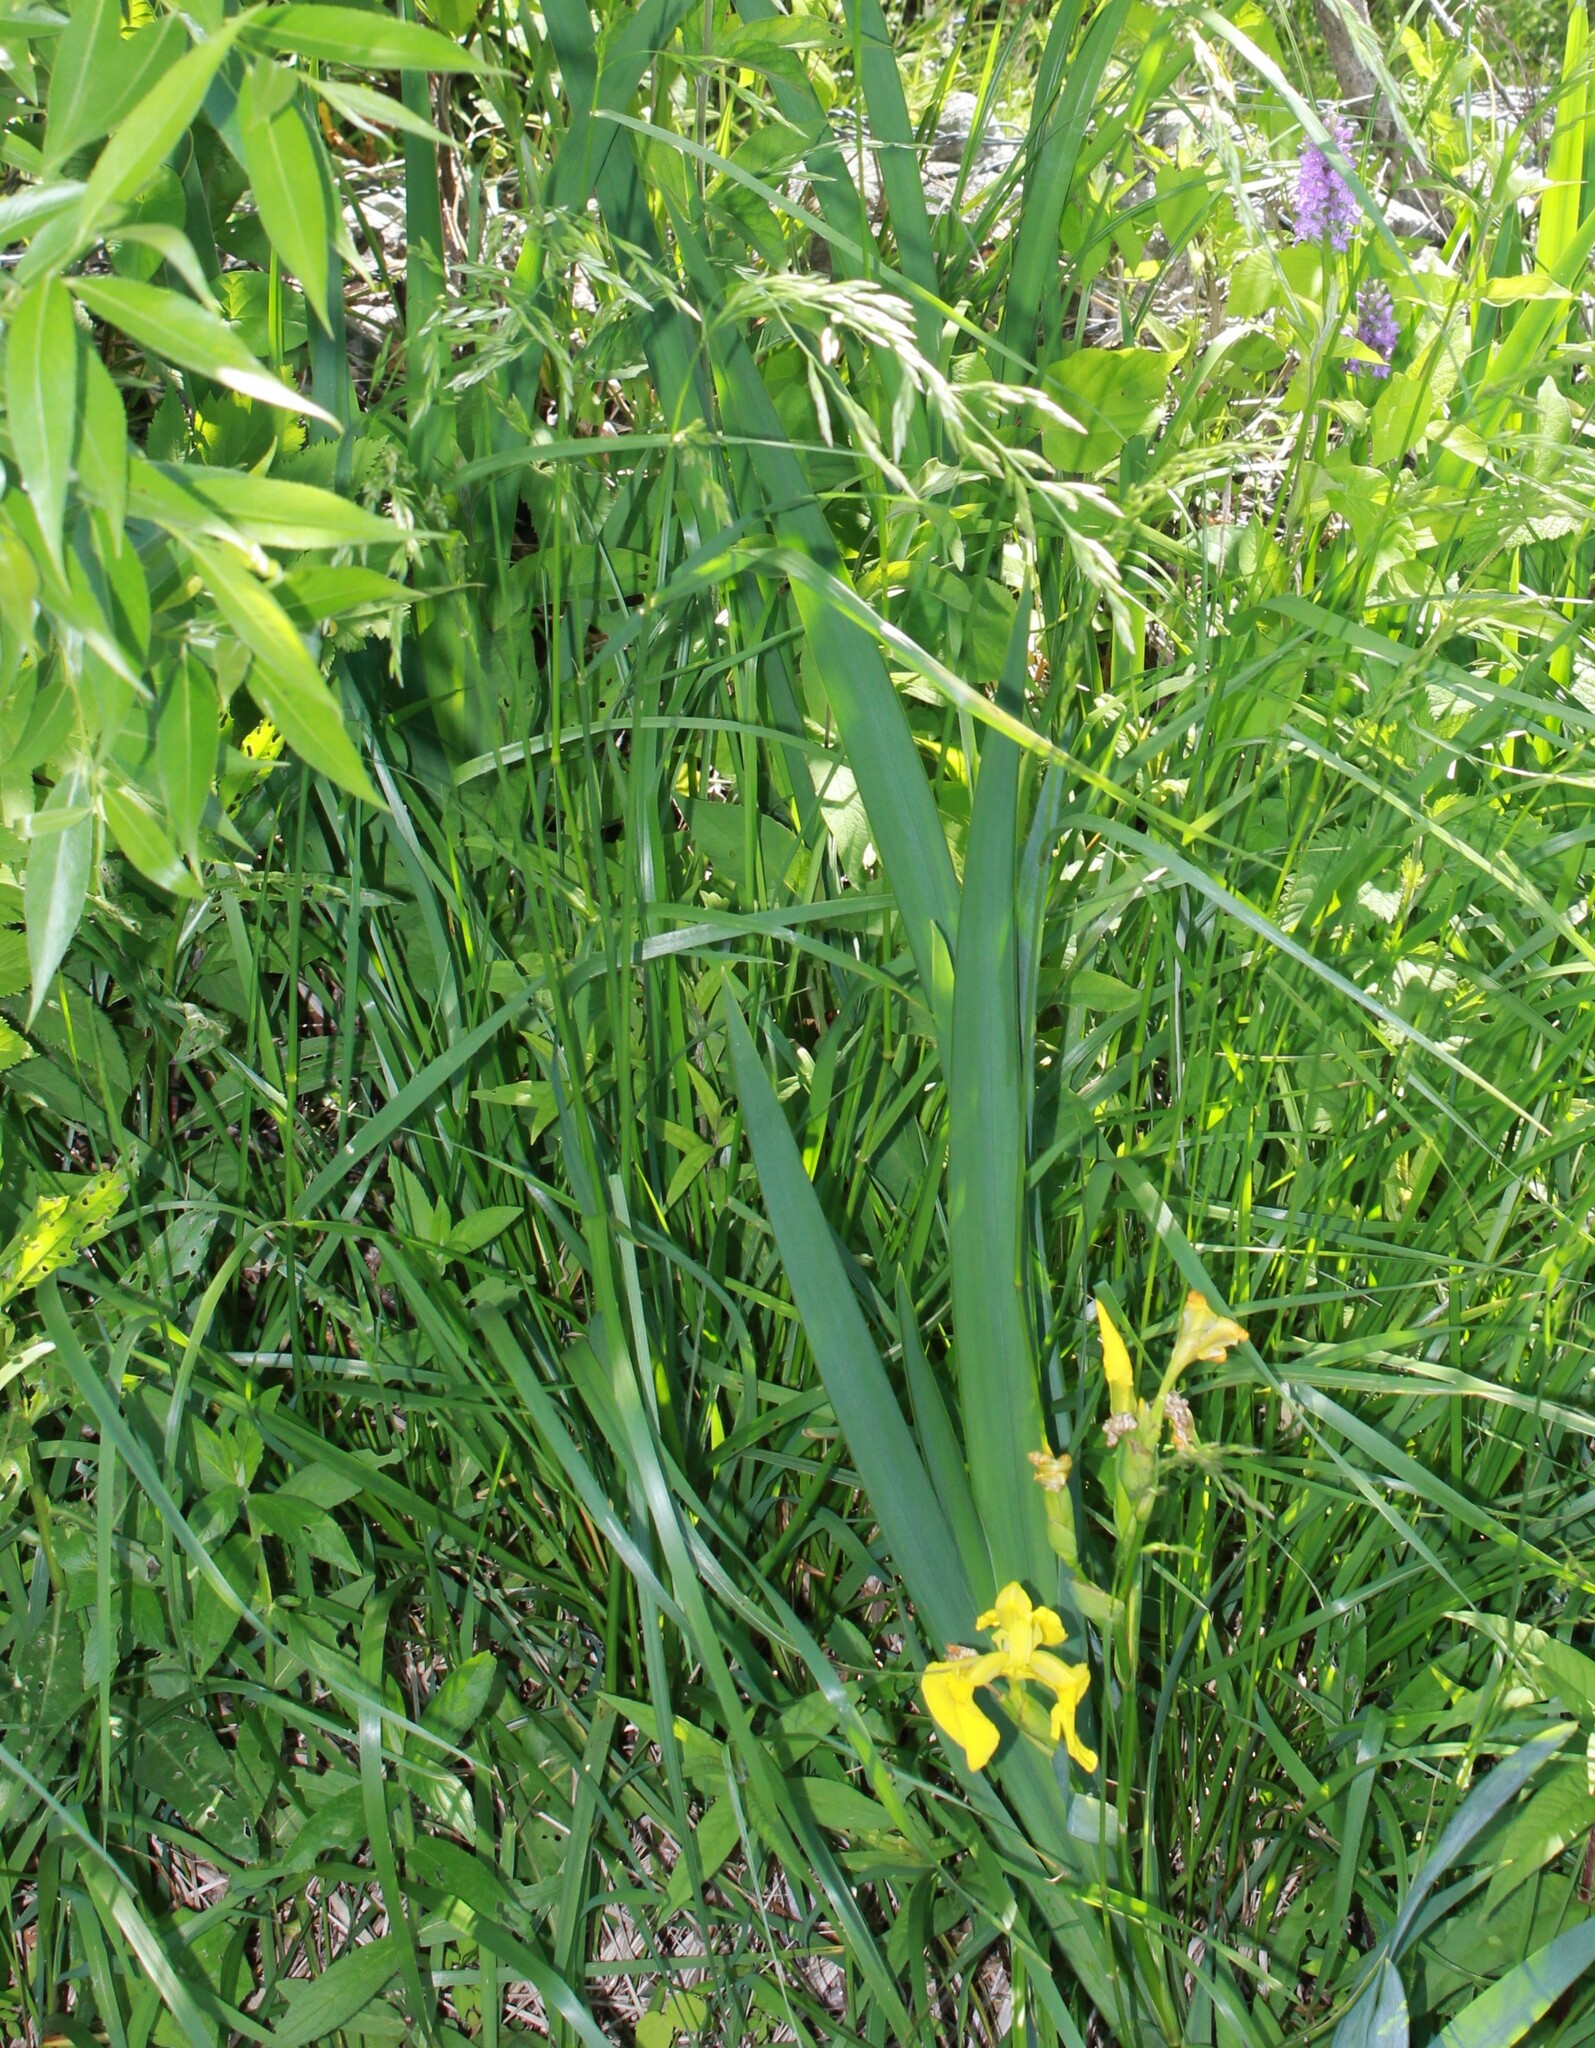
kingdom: Plantae
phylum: Tracheophyta
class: Liliopsida
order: Asparagales
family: Orchidaceae
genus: Dactylorhiza
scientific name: Dactylorhiza majalis
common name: Marsh orchid
